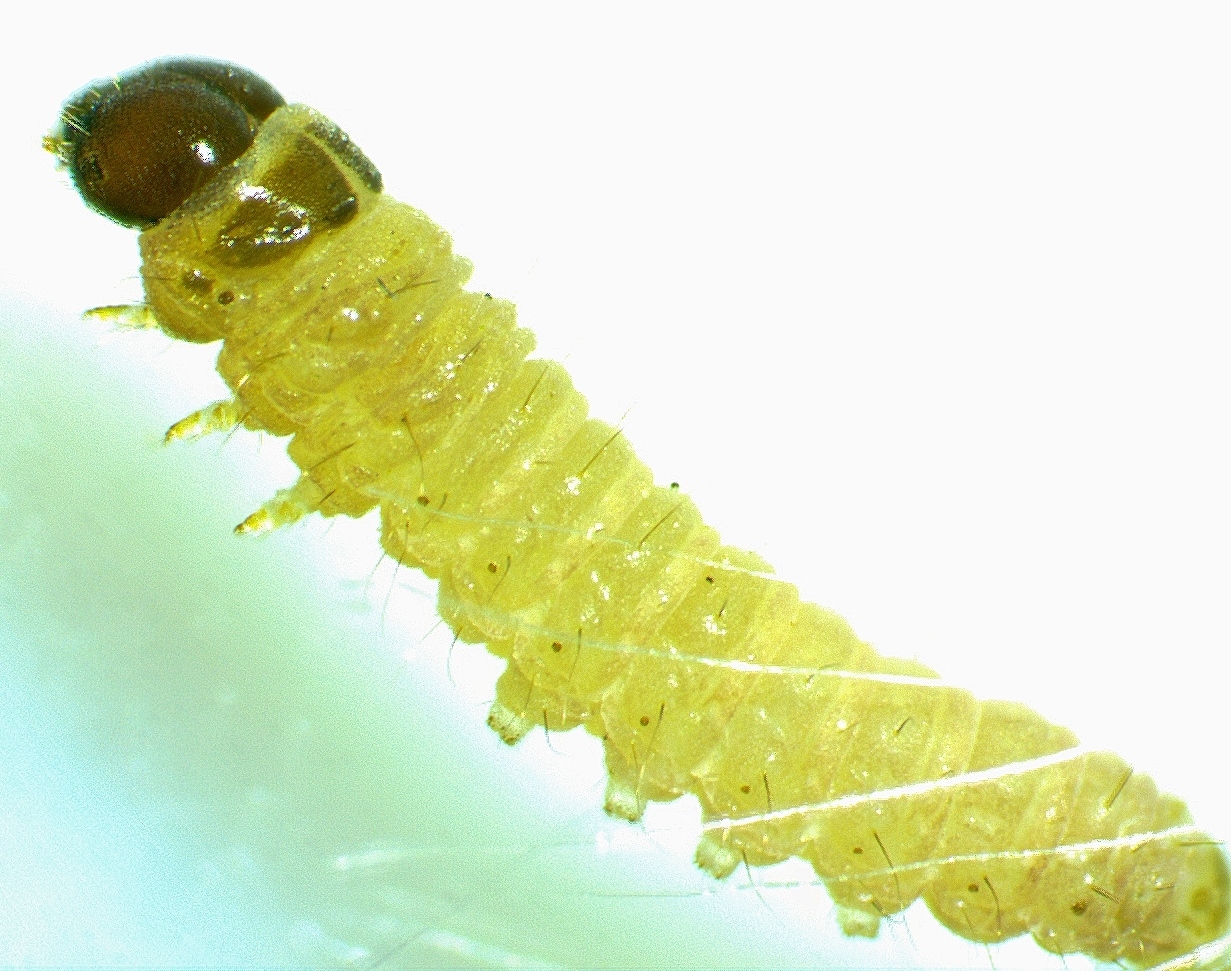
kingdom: Animalia
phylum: Arthropoda
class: Insecta
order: Lepidoptera
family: Crambidae
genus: Dicymolomia
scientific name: Dicymolomia julianalis
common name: Julia's dicymolomia moth
